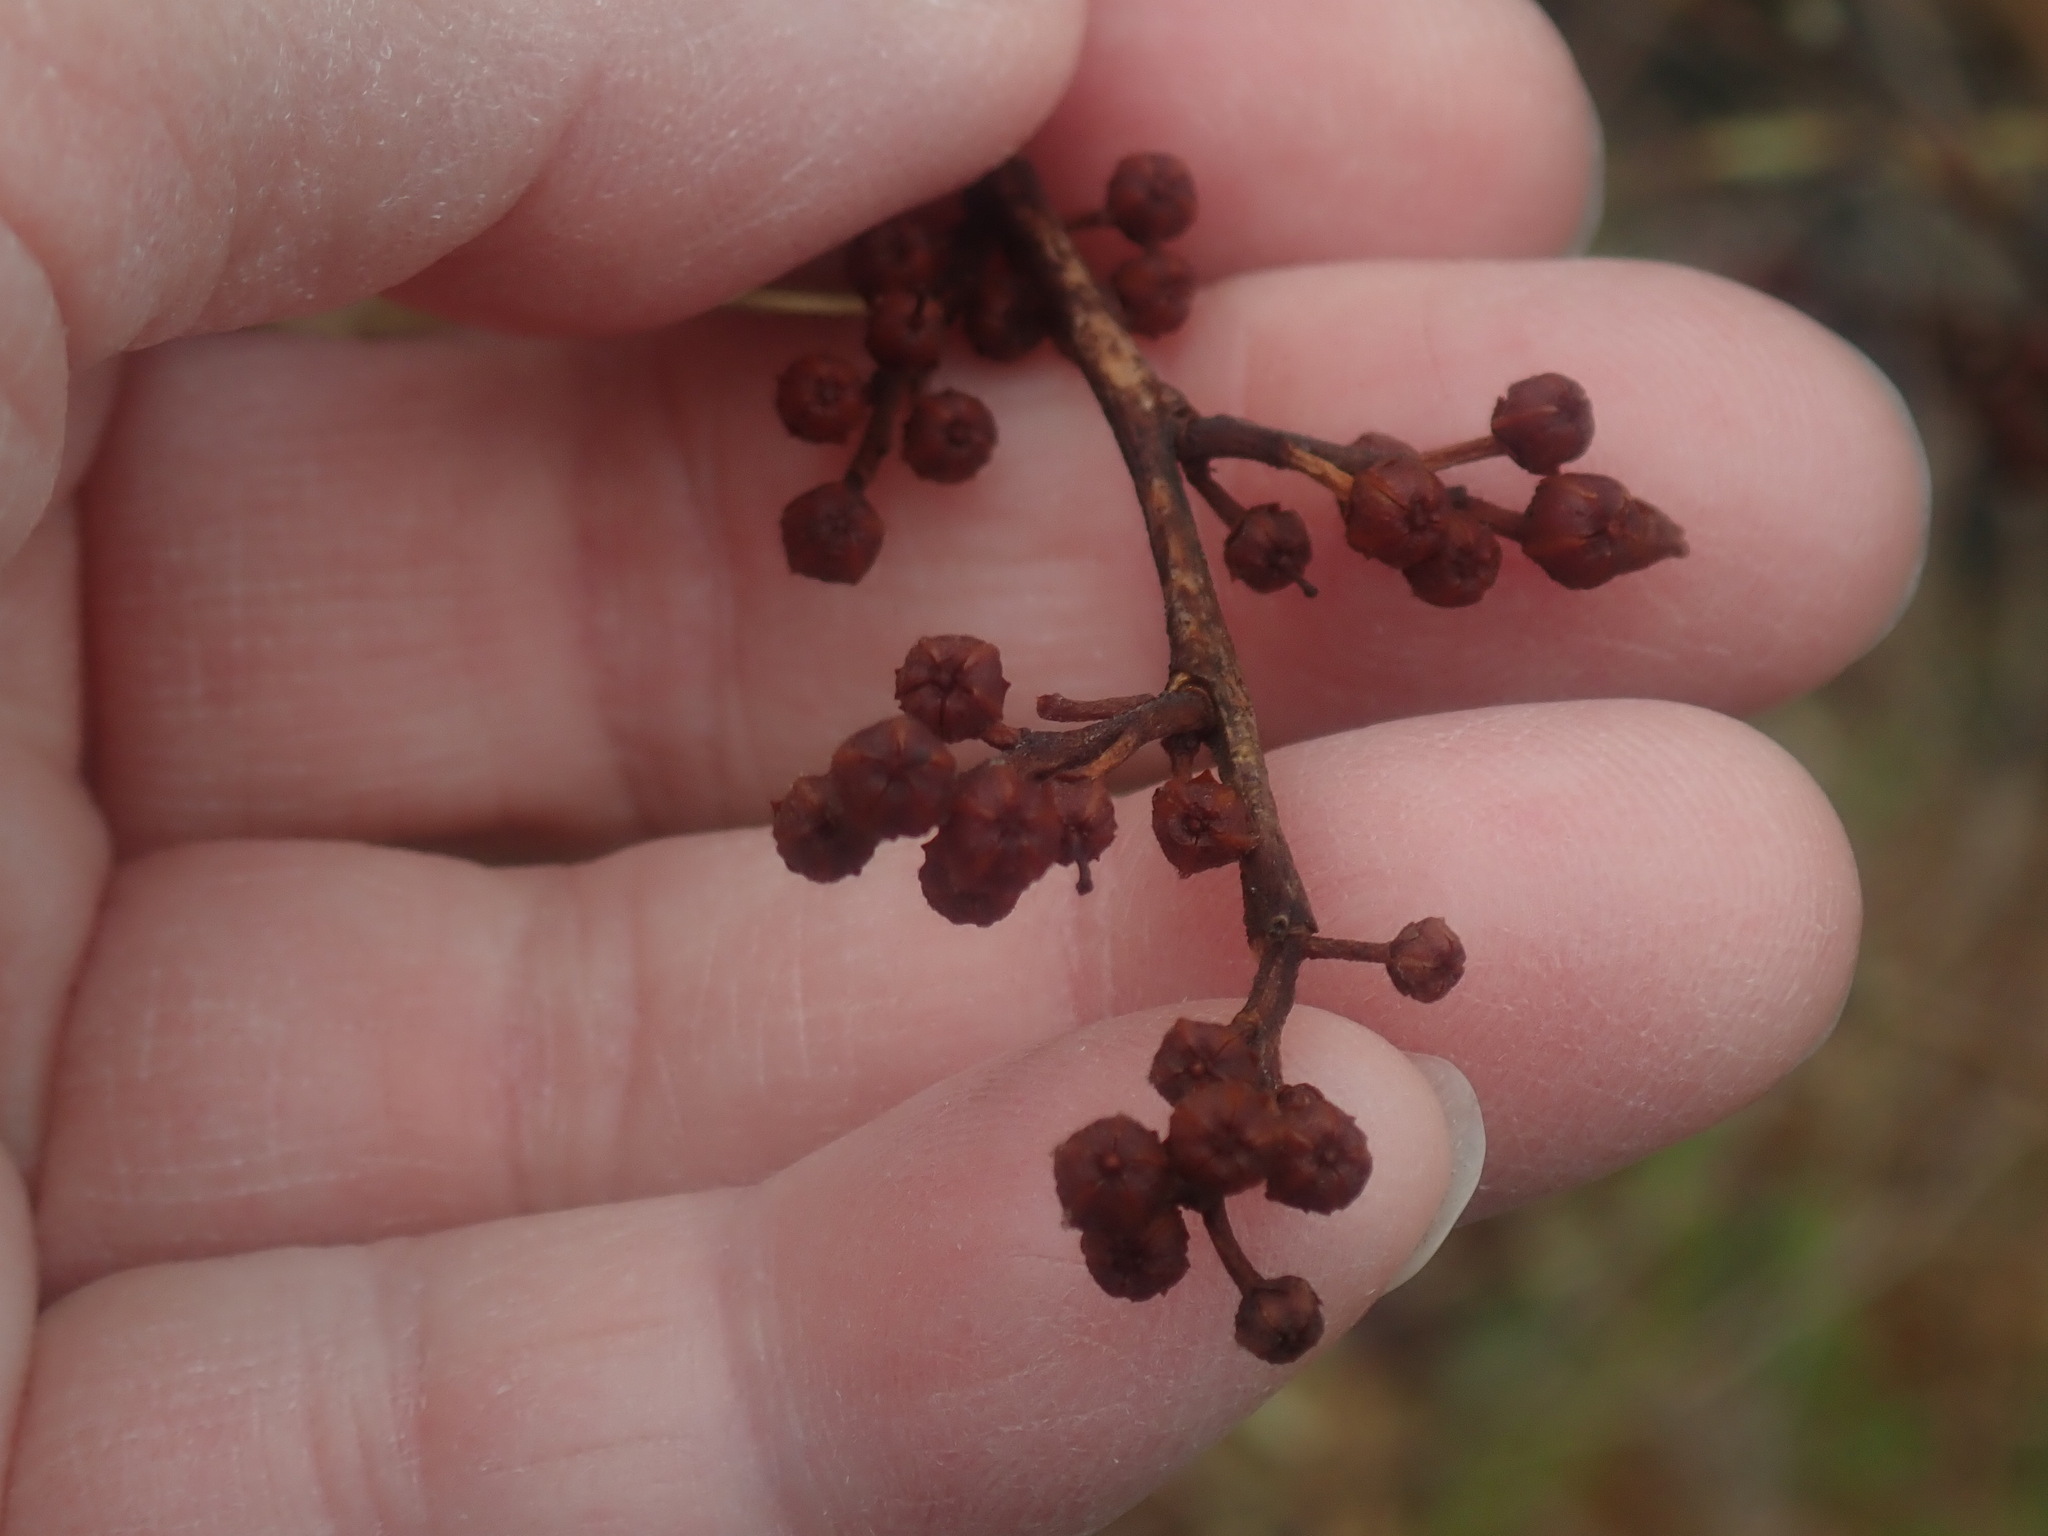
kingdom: Plantae
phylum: Tracheophyta
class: Magnoliopsida
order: Ericales
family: Ericaceae
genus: Lyonia
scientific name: Lyonia ligustrina
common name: Maleberry
